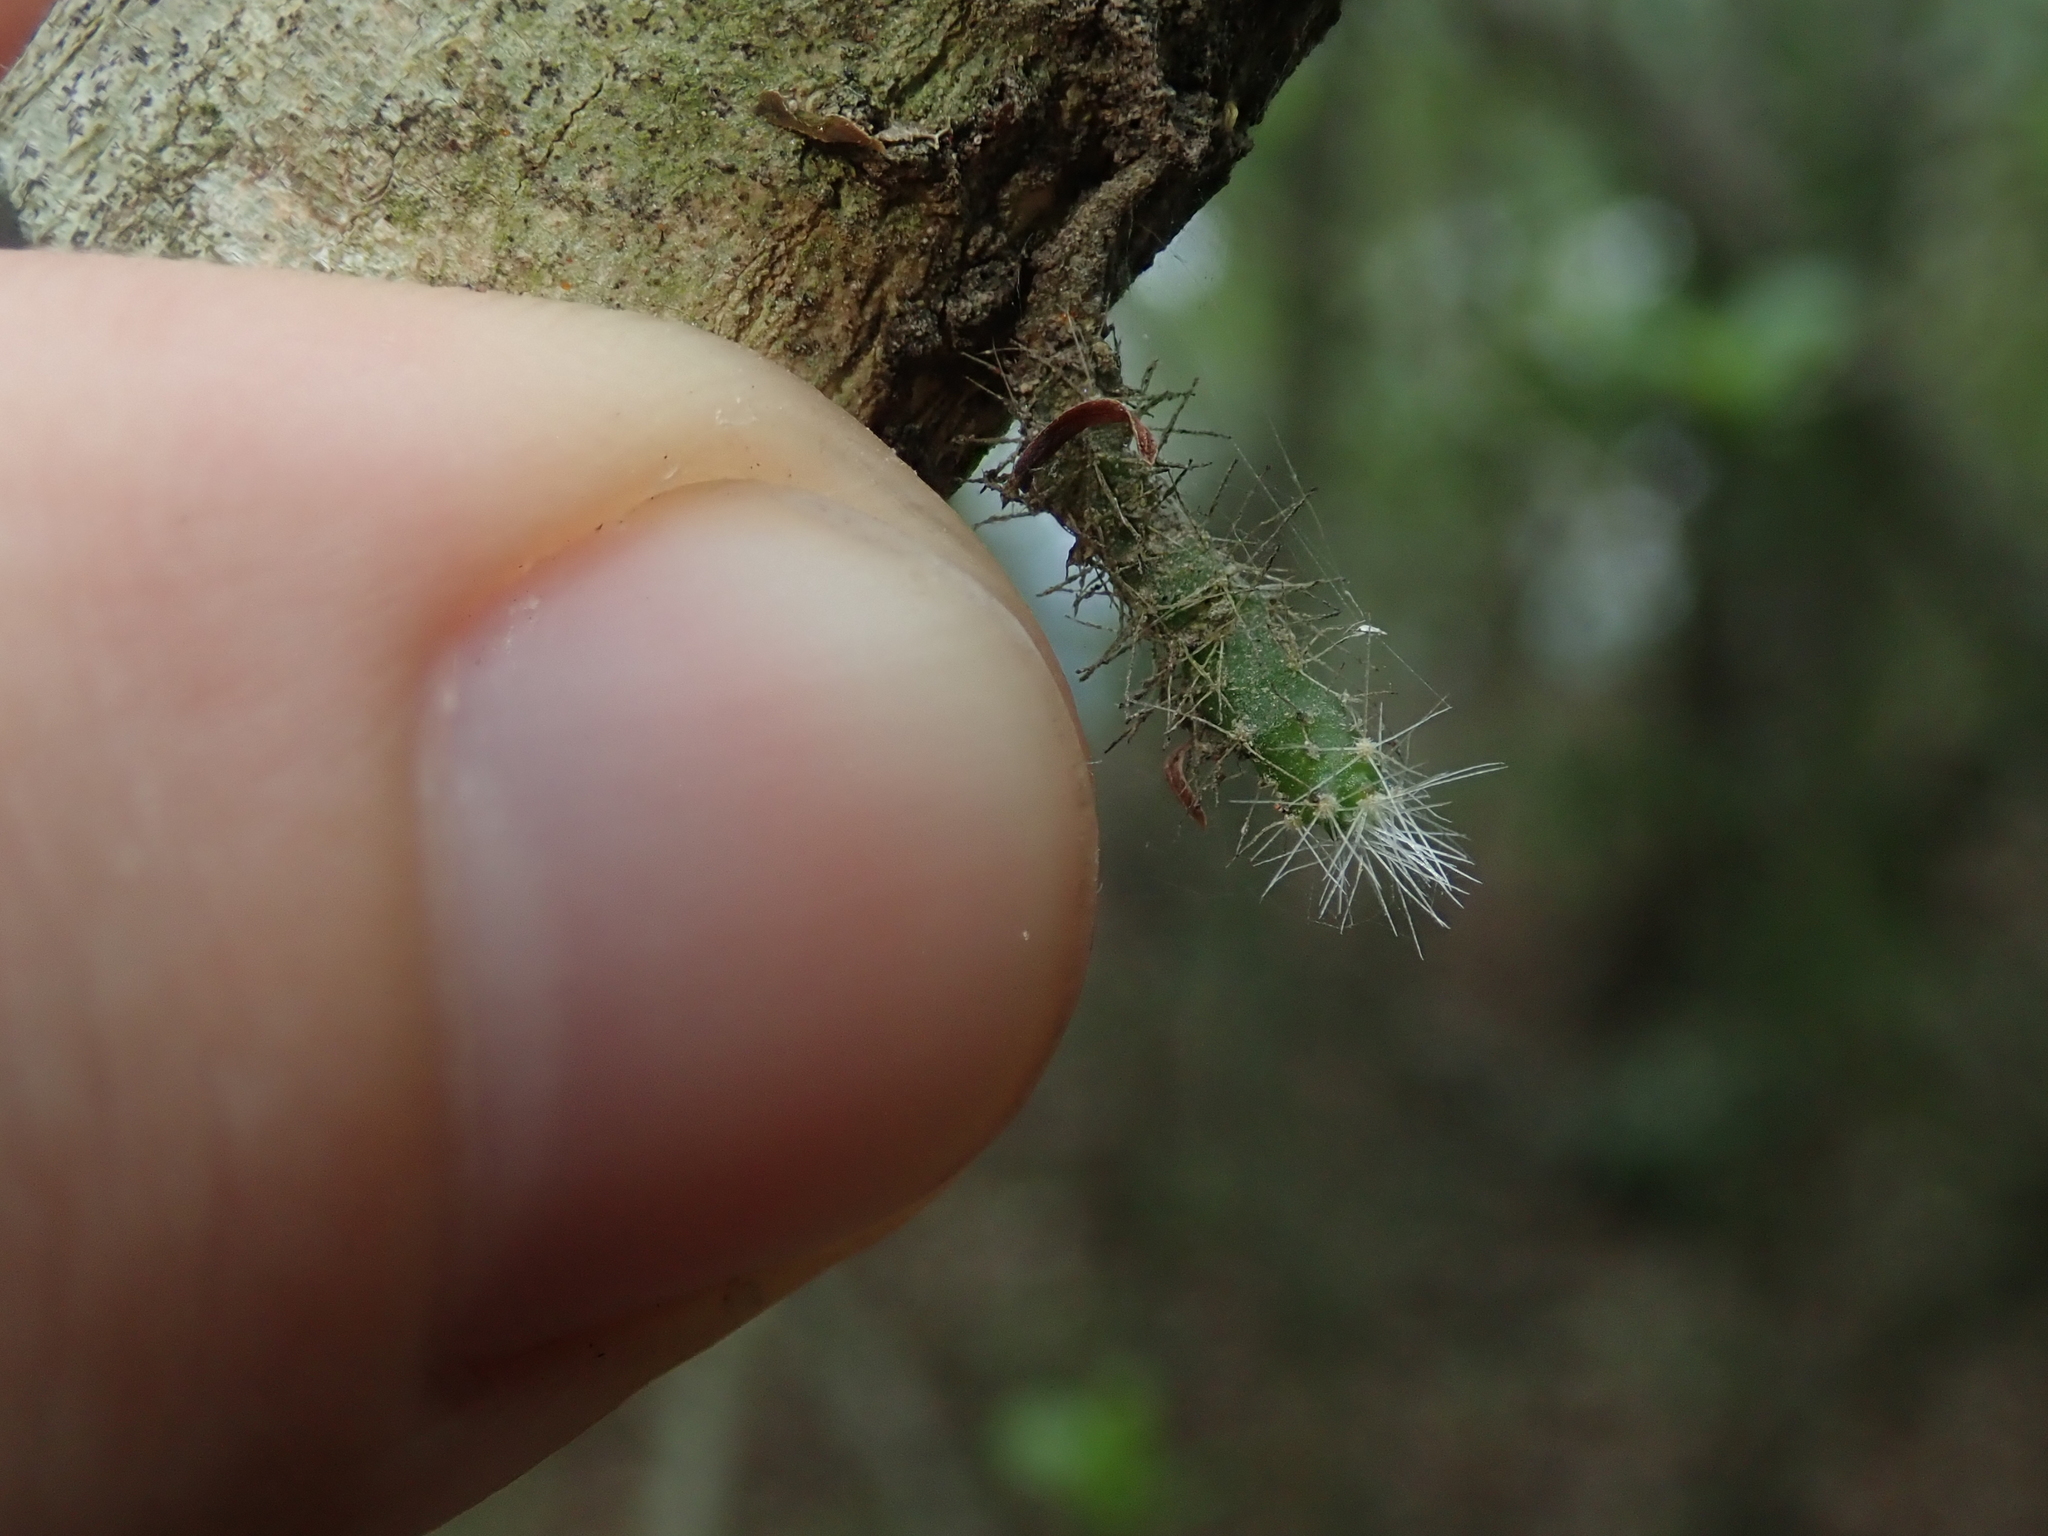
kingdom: Plantae
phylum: Tracheophyta
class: Magnoliopsida
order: Caryophyllales
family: Cactaceae
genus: Pfeiffera
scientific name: Pfeiffera ianthothele
